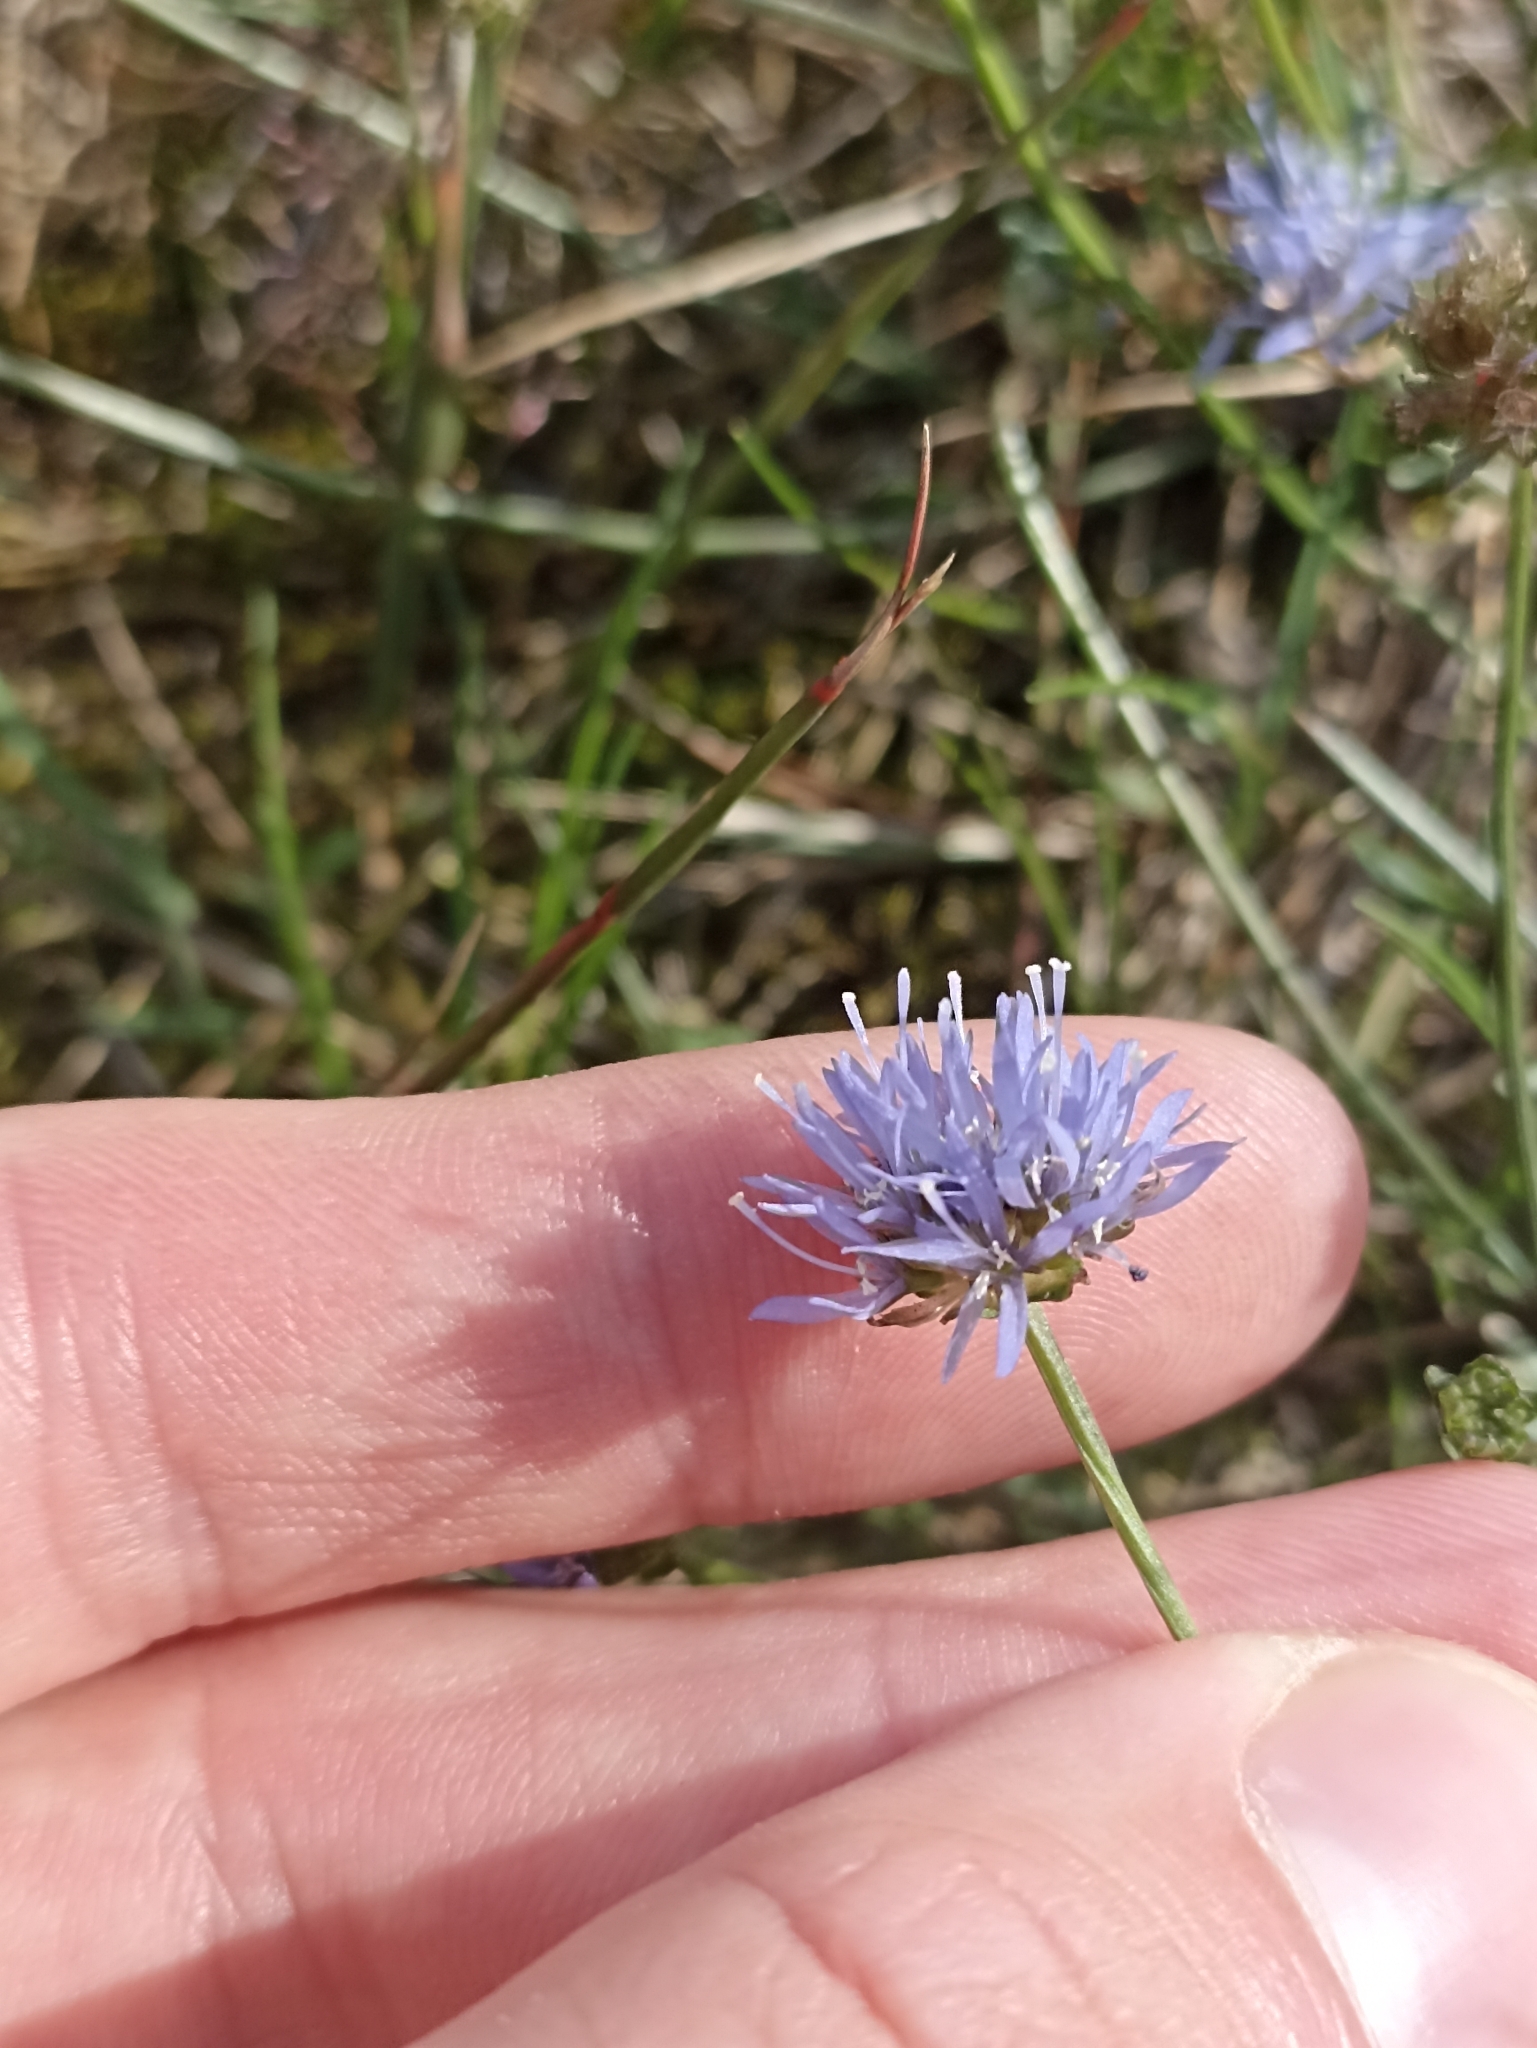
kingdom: Plantae
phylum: Tracheophyta
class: Magnoliopsida
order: Asterales
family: Campanulaceae
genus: Jasione
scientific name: Jasione montana
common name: Sheep's-bit
